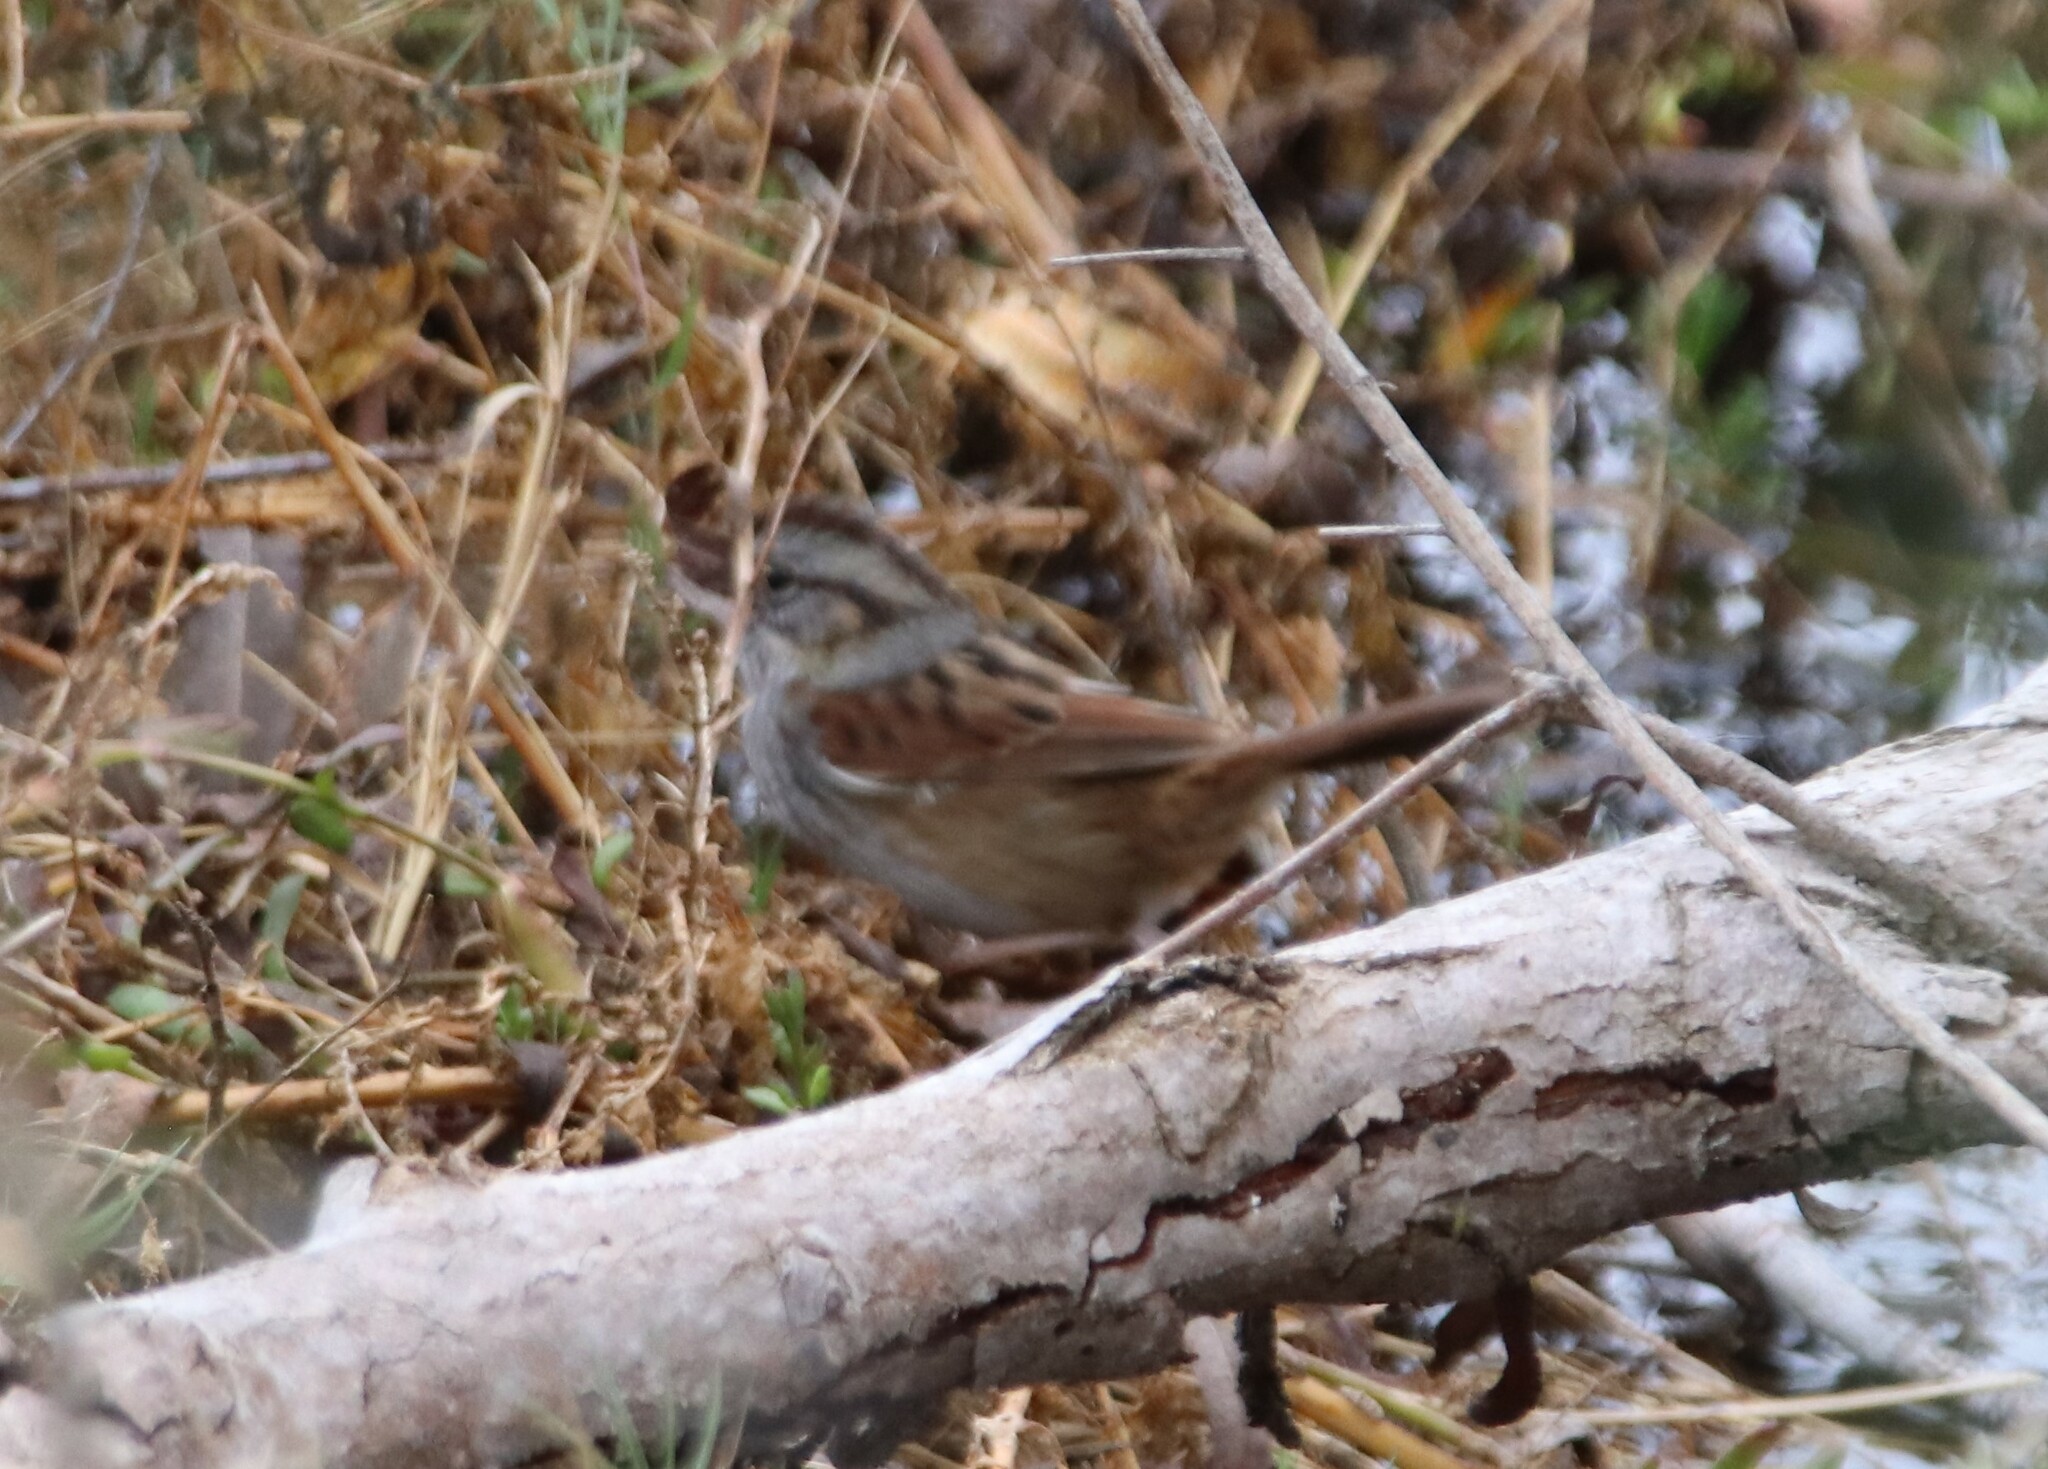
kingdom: Animalia
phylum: Chordata
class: Aves
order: Passeriformes
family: Passerellidae
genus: Melospiza
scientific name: Melospiza georgiana
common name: Swamp sparrow
